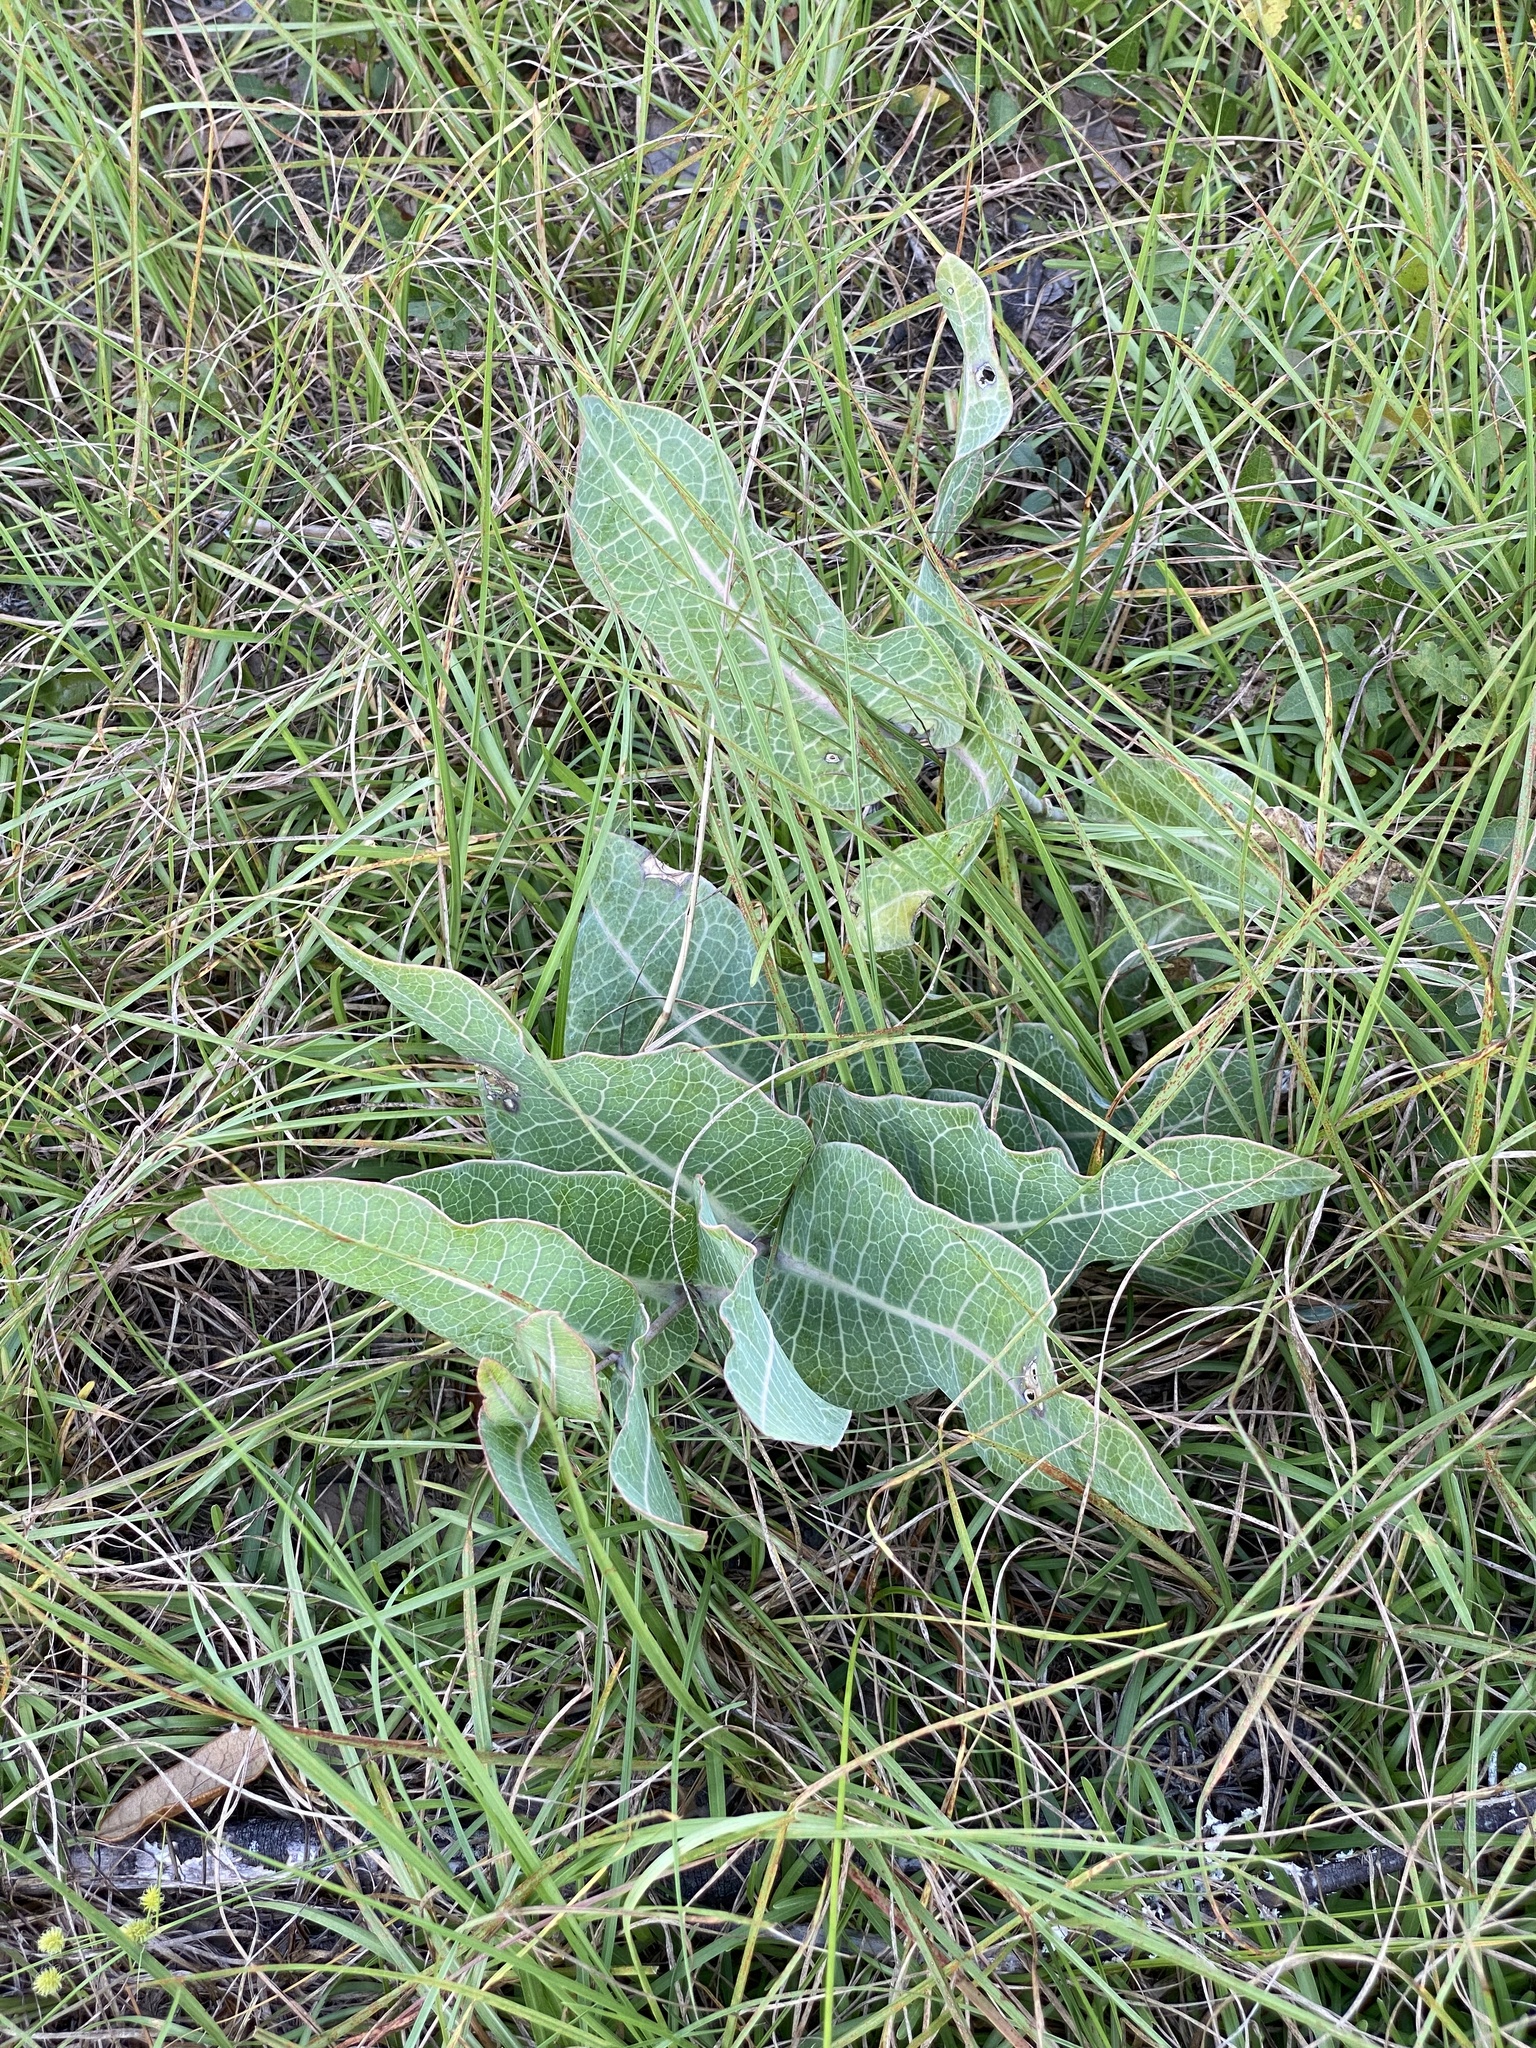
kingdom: Plantae
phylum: Tracheophyta
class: Magnoliopsida
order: Gentianales
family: Apocynaceae
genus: Asclepias
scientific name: Asclepias humistrata
